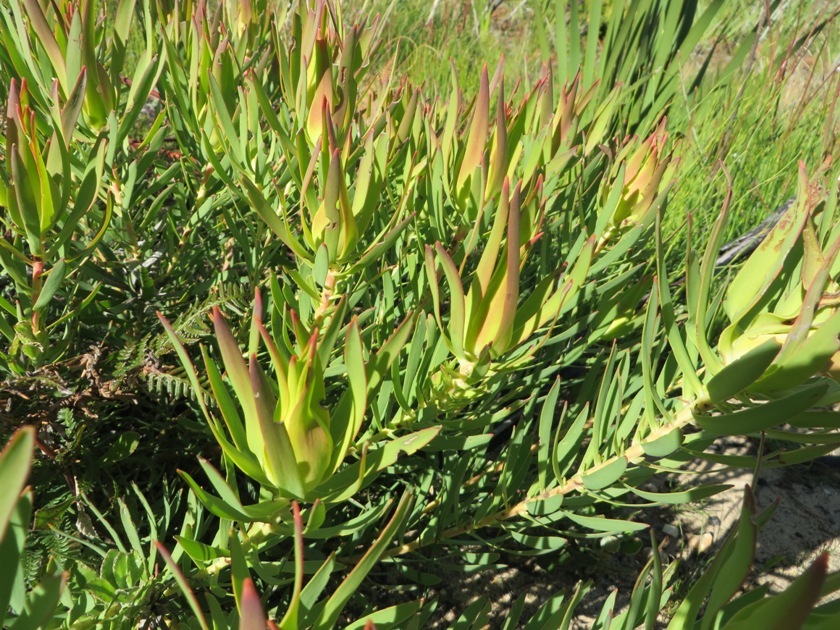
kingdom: Plantae
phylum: Tracheophyta
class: Magnoliopsida
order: Proteales
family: Proteaceae
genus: Leucadendron
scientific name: Leucadendron salignum
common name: Common sunshine conebush
